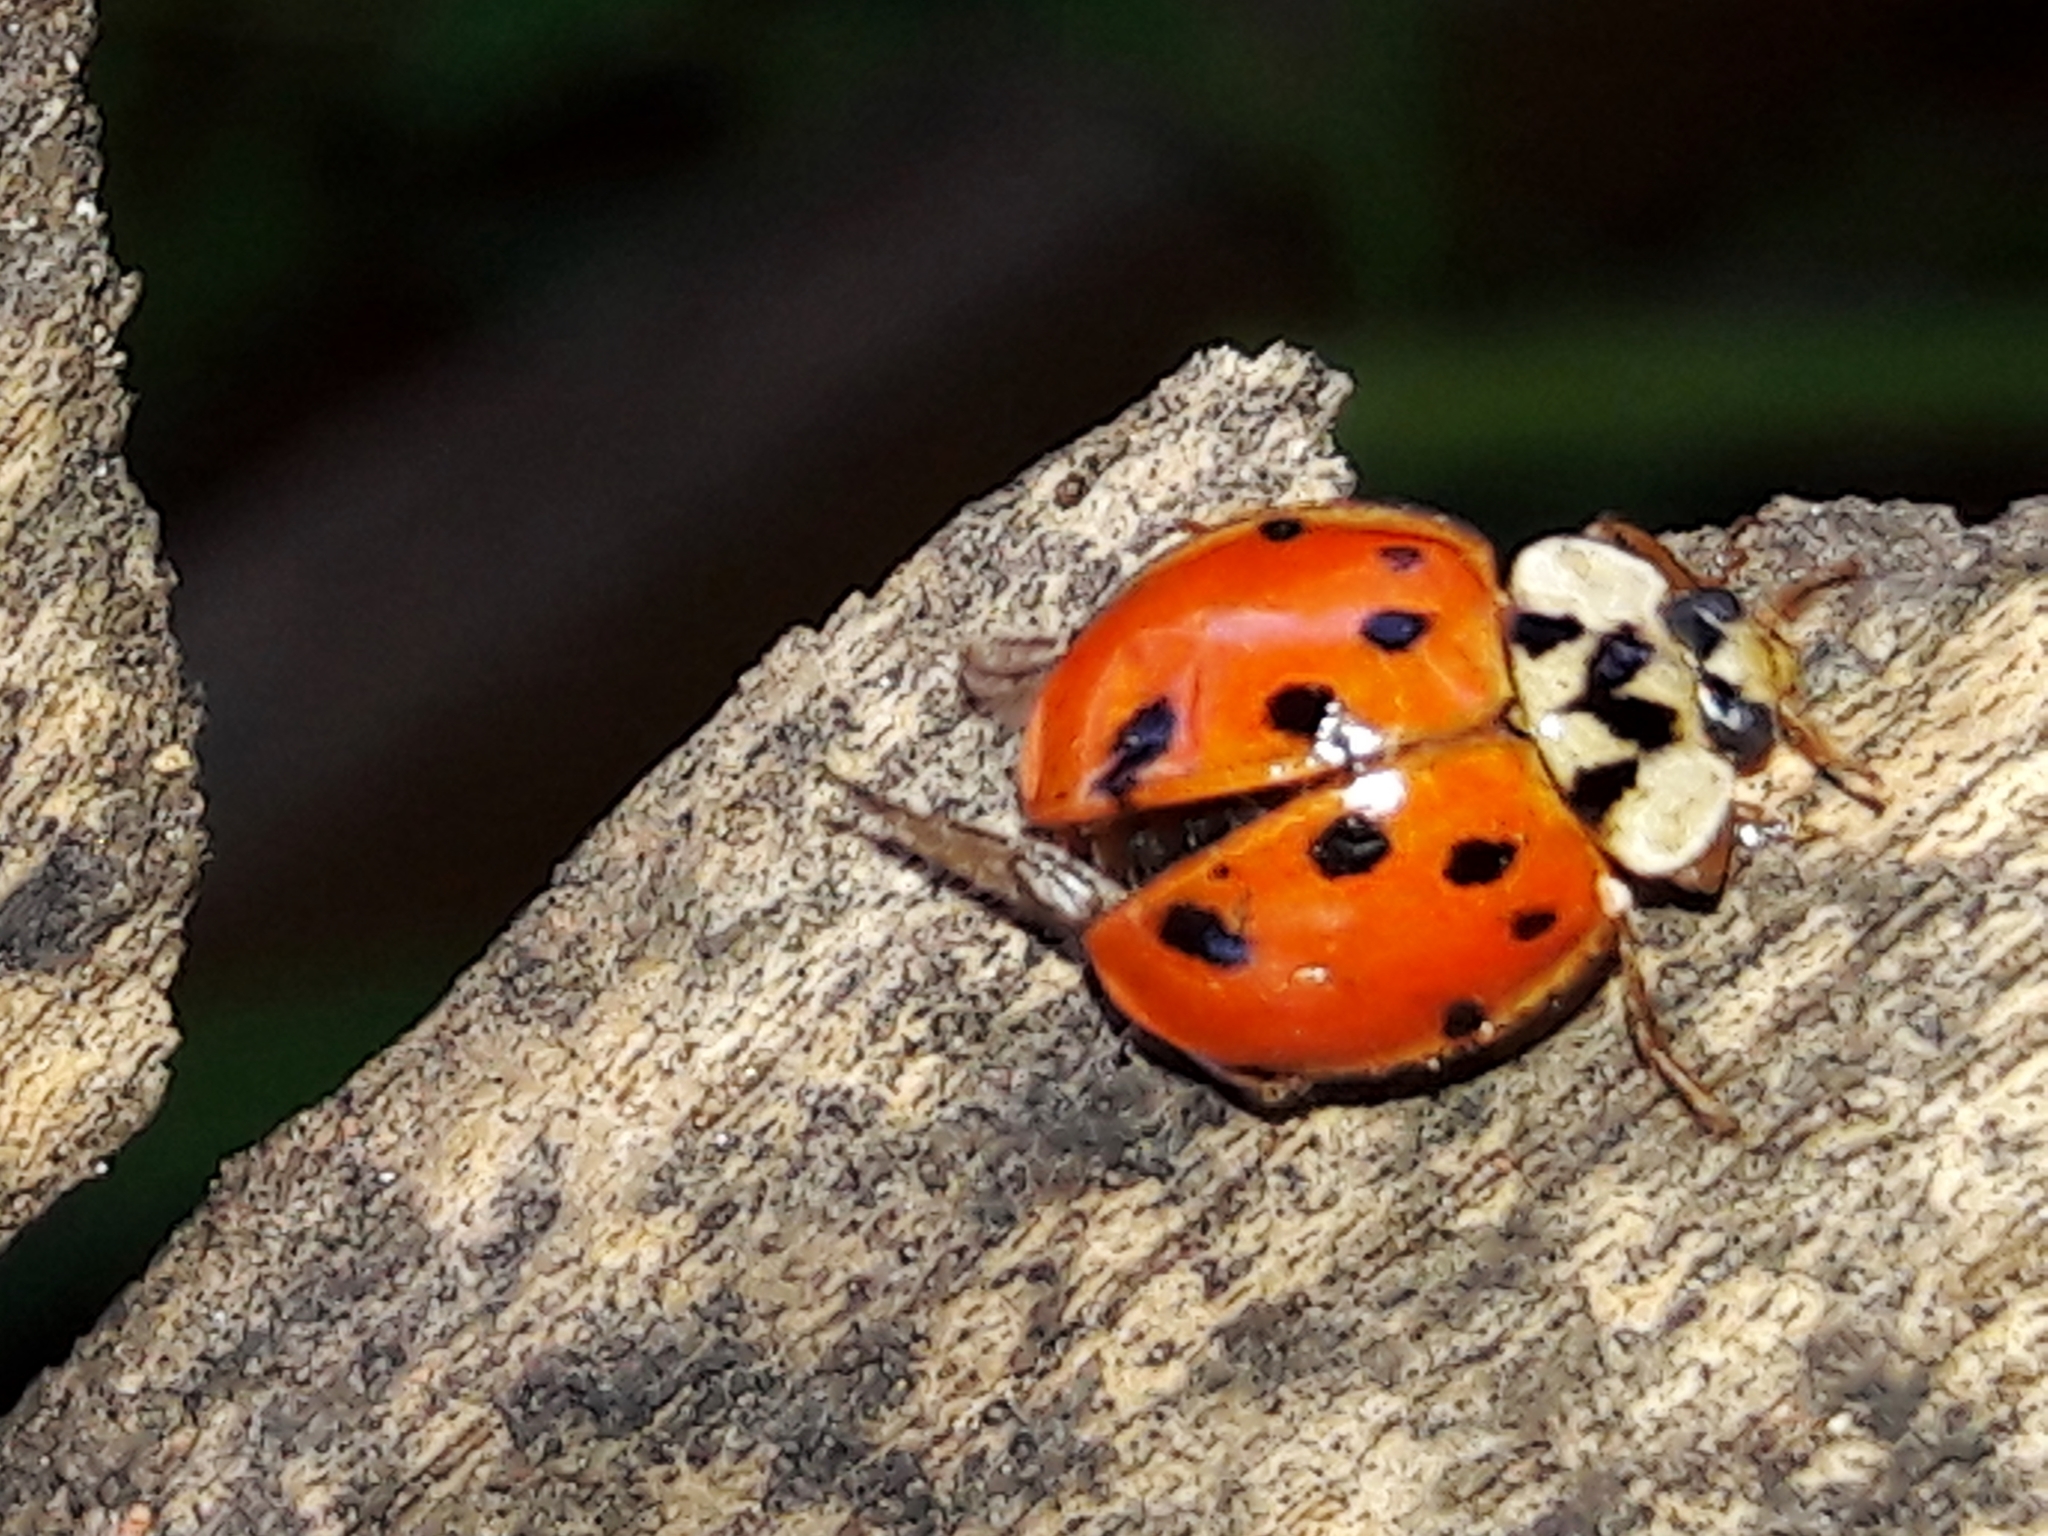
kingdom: Animalia
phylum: Arthropoda
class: Insecta
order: Coleoptera
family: Coccinellidae
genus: Harmonia
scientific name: Harmonia axyridis
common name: Harlequin ladybird
